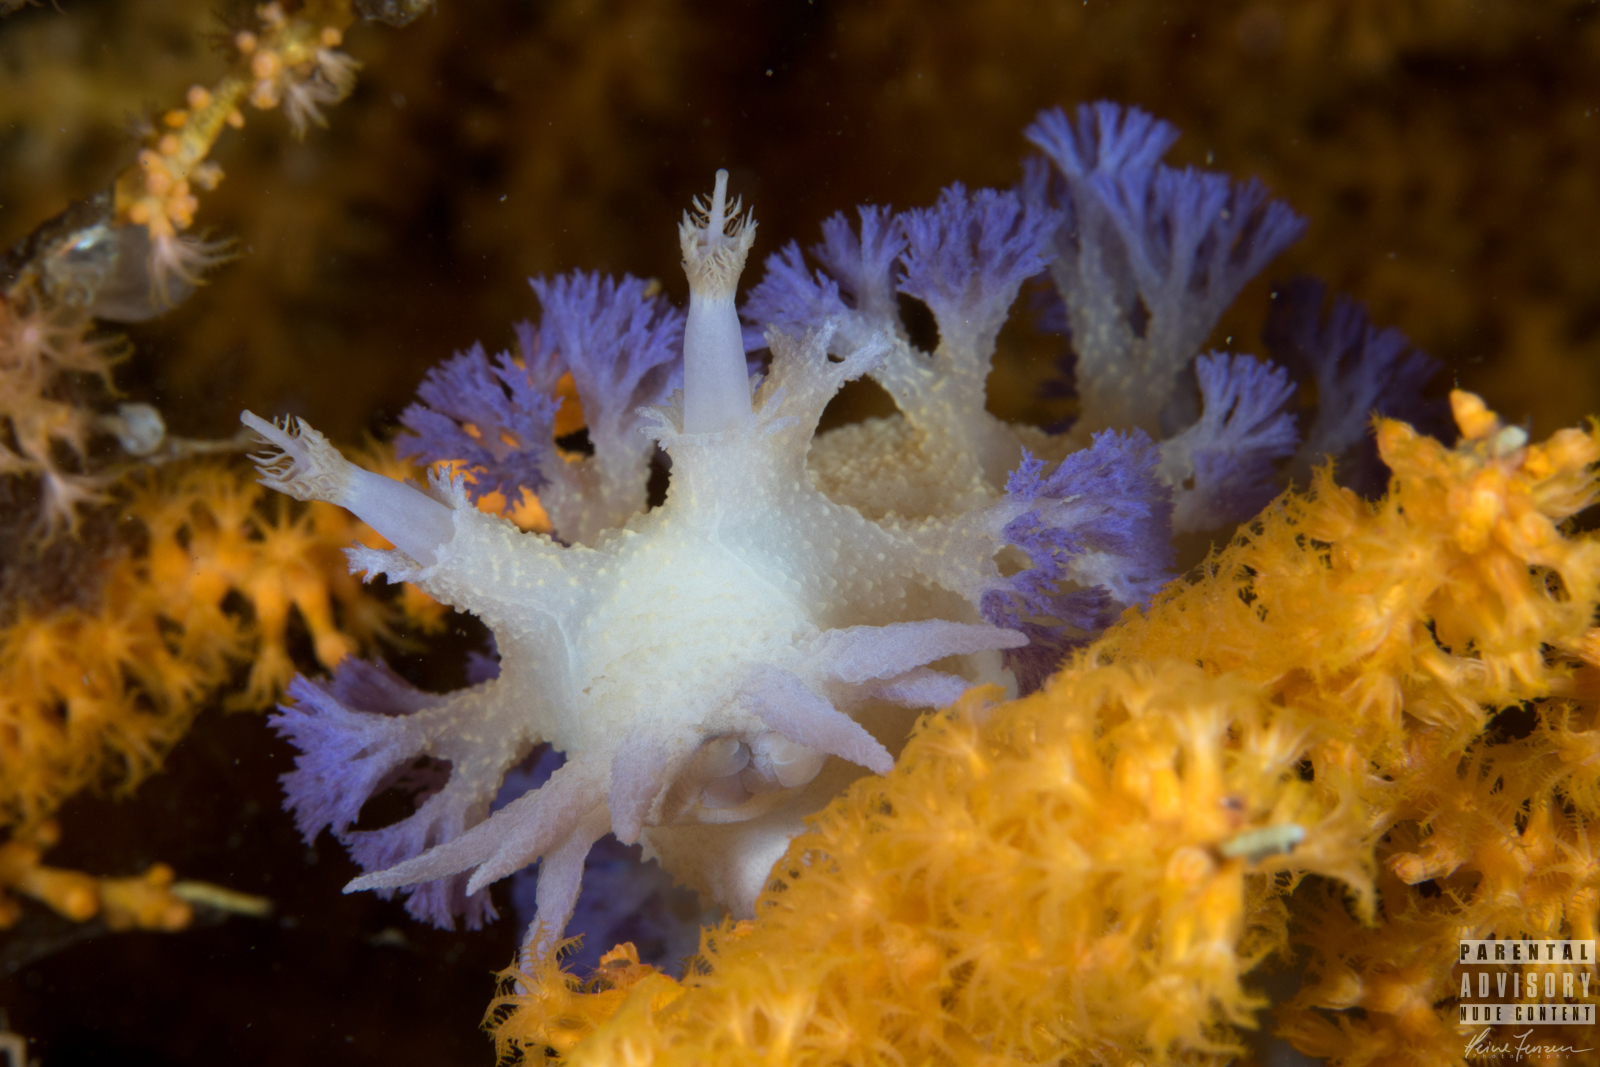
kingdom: Animalia
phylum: Mollusca
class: Gastropoda
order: Nudibranchia
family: Tritoniidae
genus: Tritonia
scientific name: Tritonia griegi
